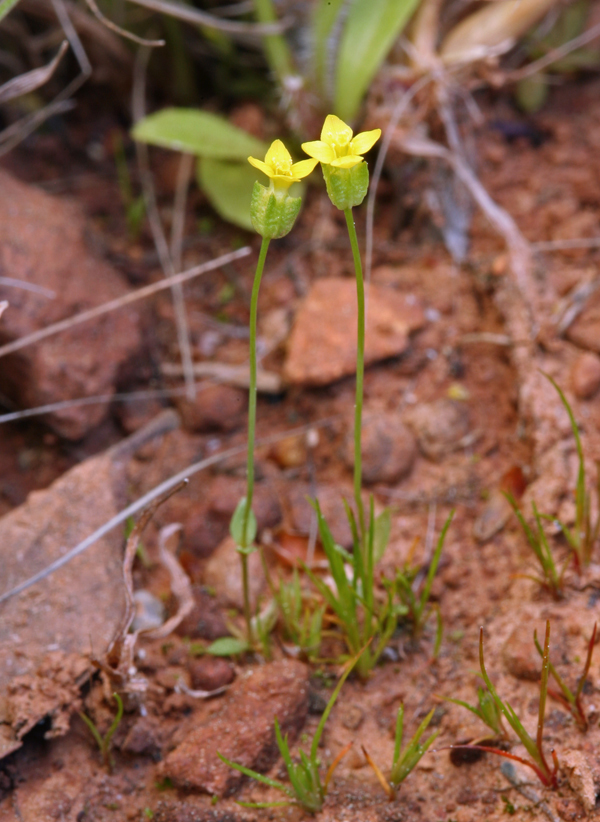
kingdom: Plantae
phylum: Tracheophyta
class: Magnoliopsida
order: Gentianales
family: Gentianaceae
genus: Microcala
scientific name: Microcala quadrangularis
